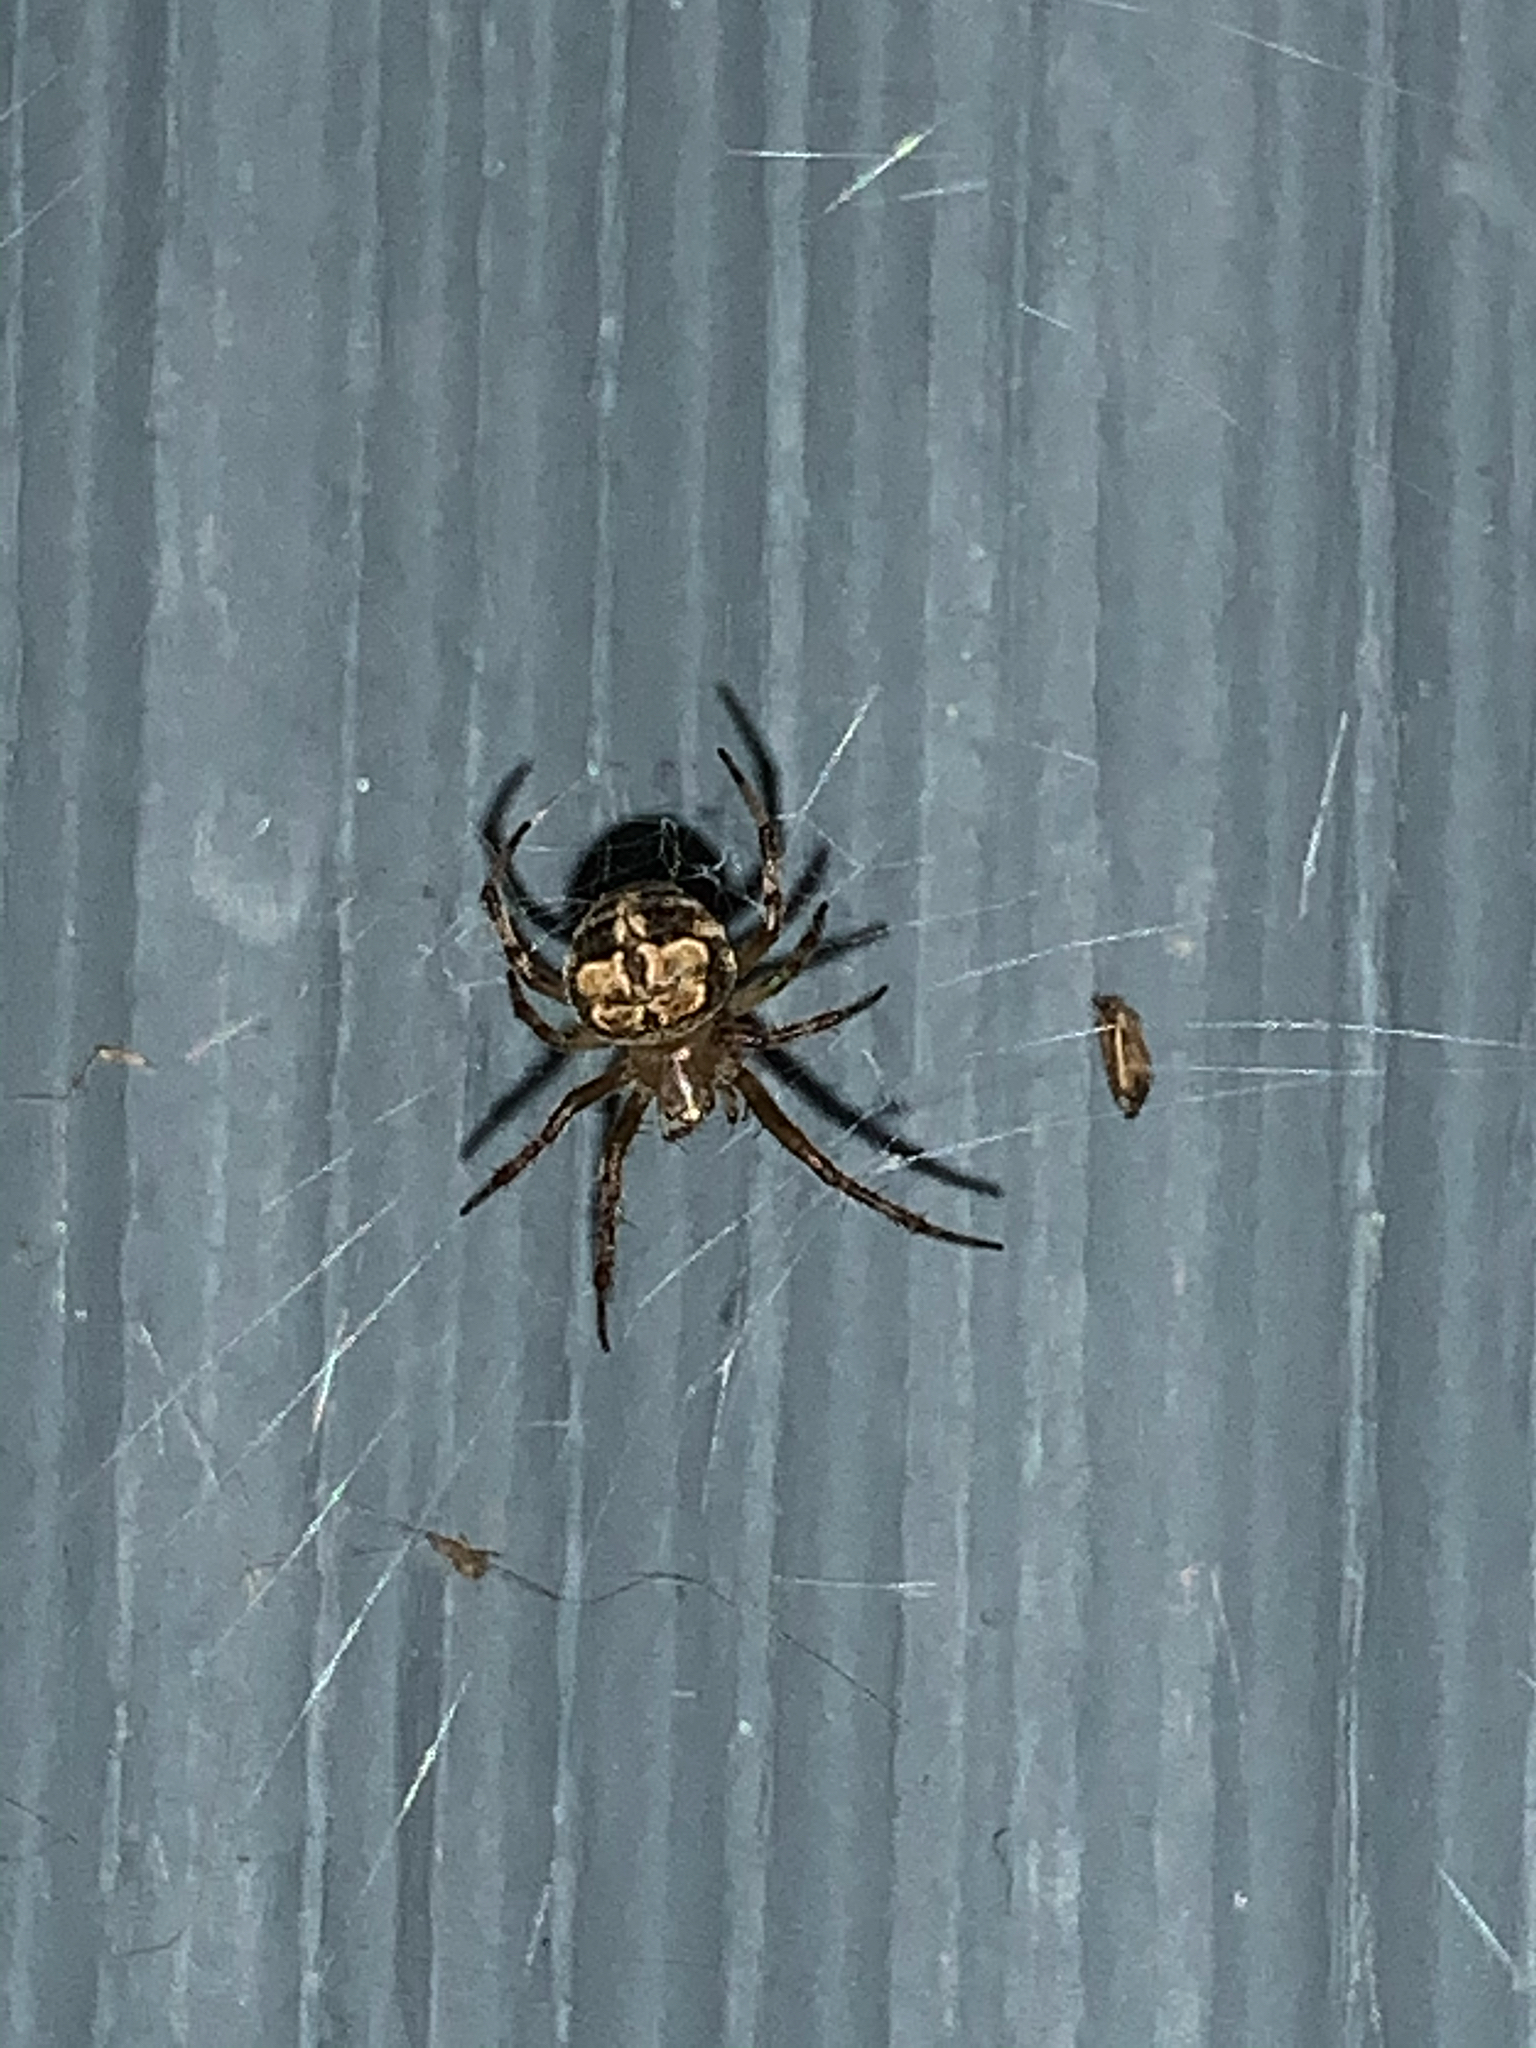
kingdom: Animalia
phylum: Arthropoda
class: Arachnida
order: Araneae
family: Araneidae
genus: Araneus
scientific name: Araneus pegnia
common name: Orb weavers
